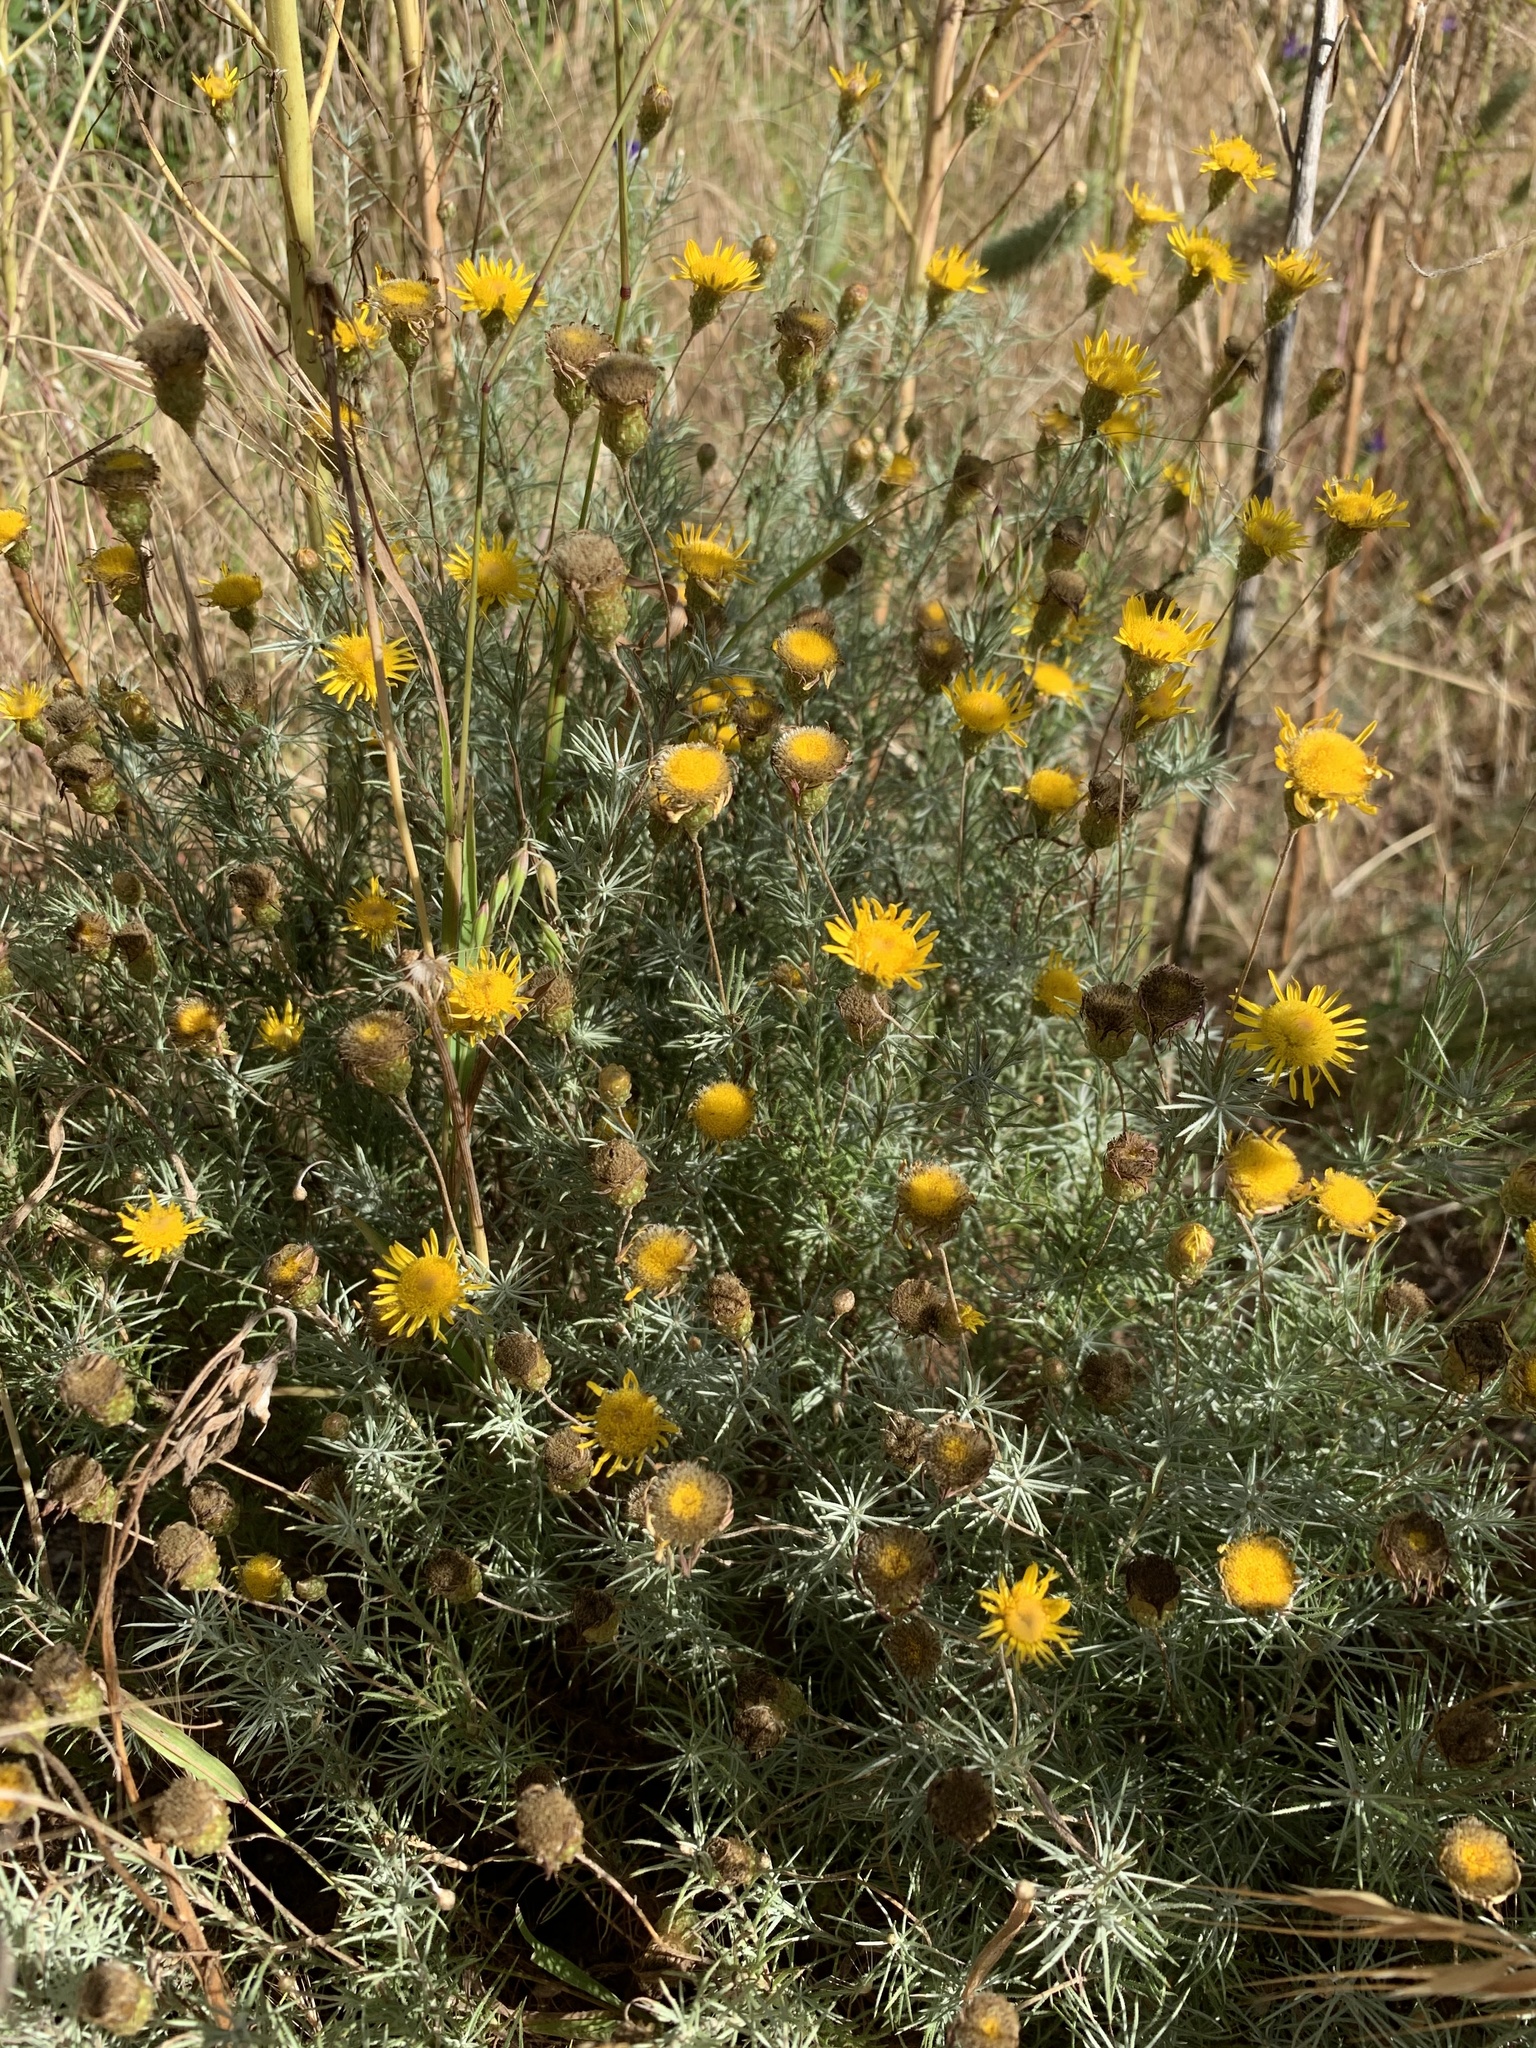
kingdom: Plantae
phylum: Tracheophyta
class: Magnoliopsida
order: Asterales
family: Asteraceae
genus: Leysera
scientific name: Leysera gnaphalodes
